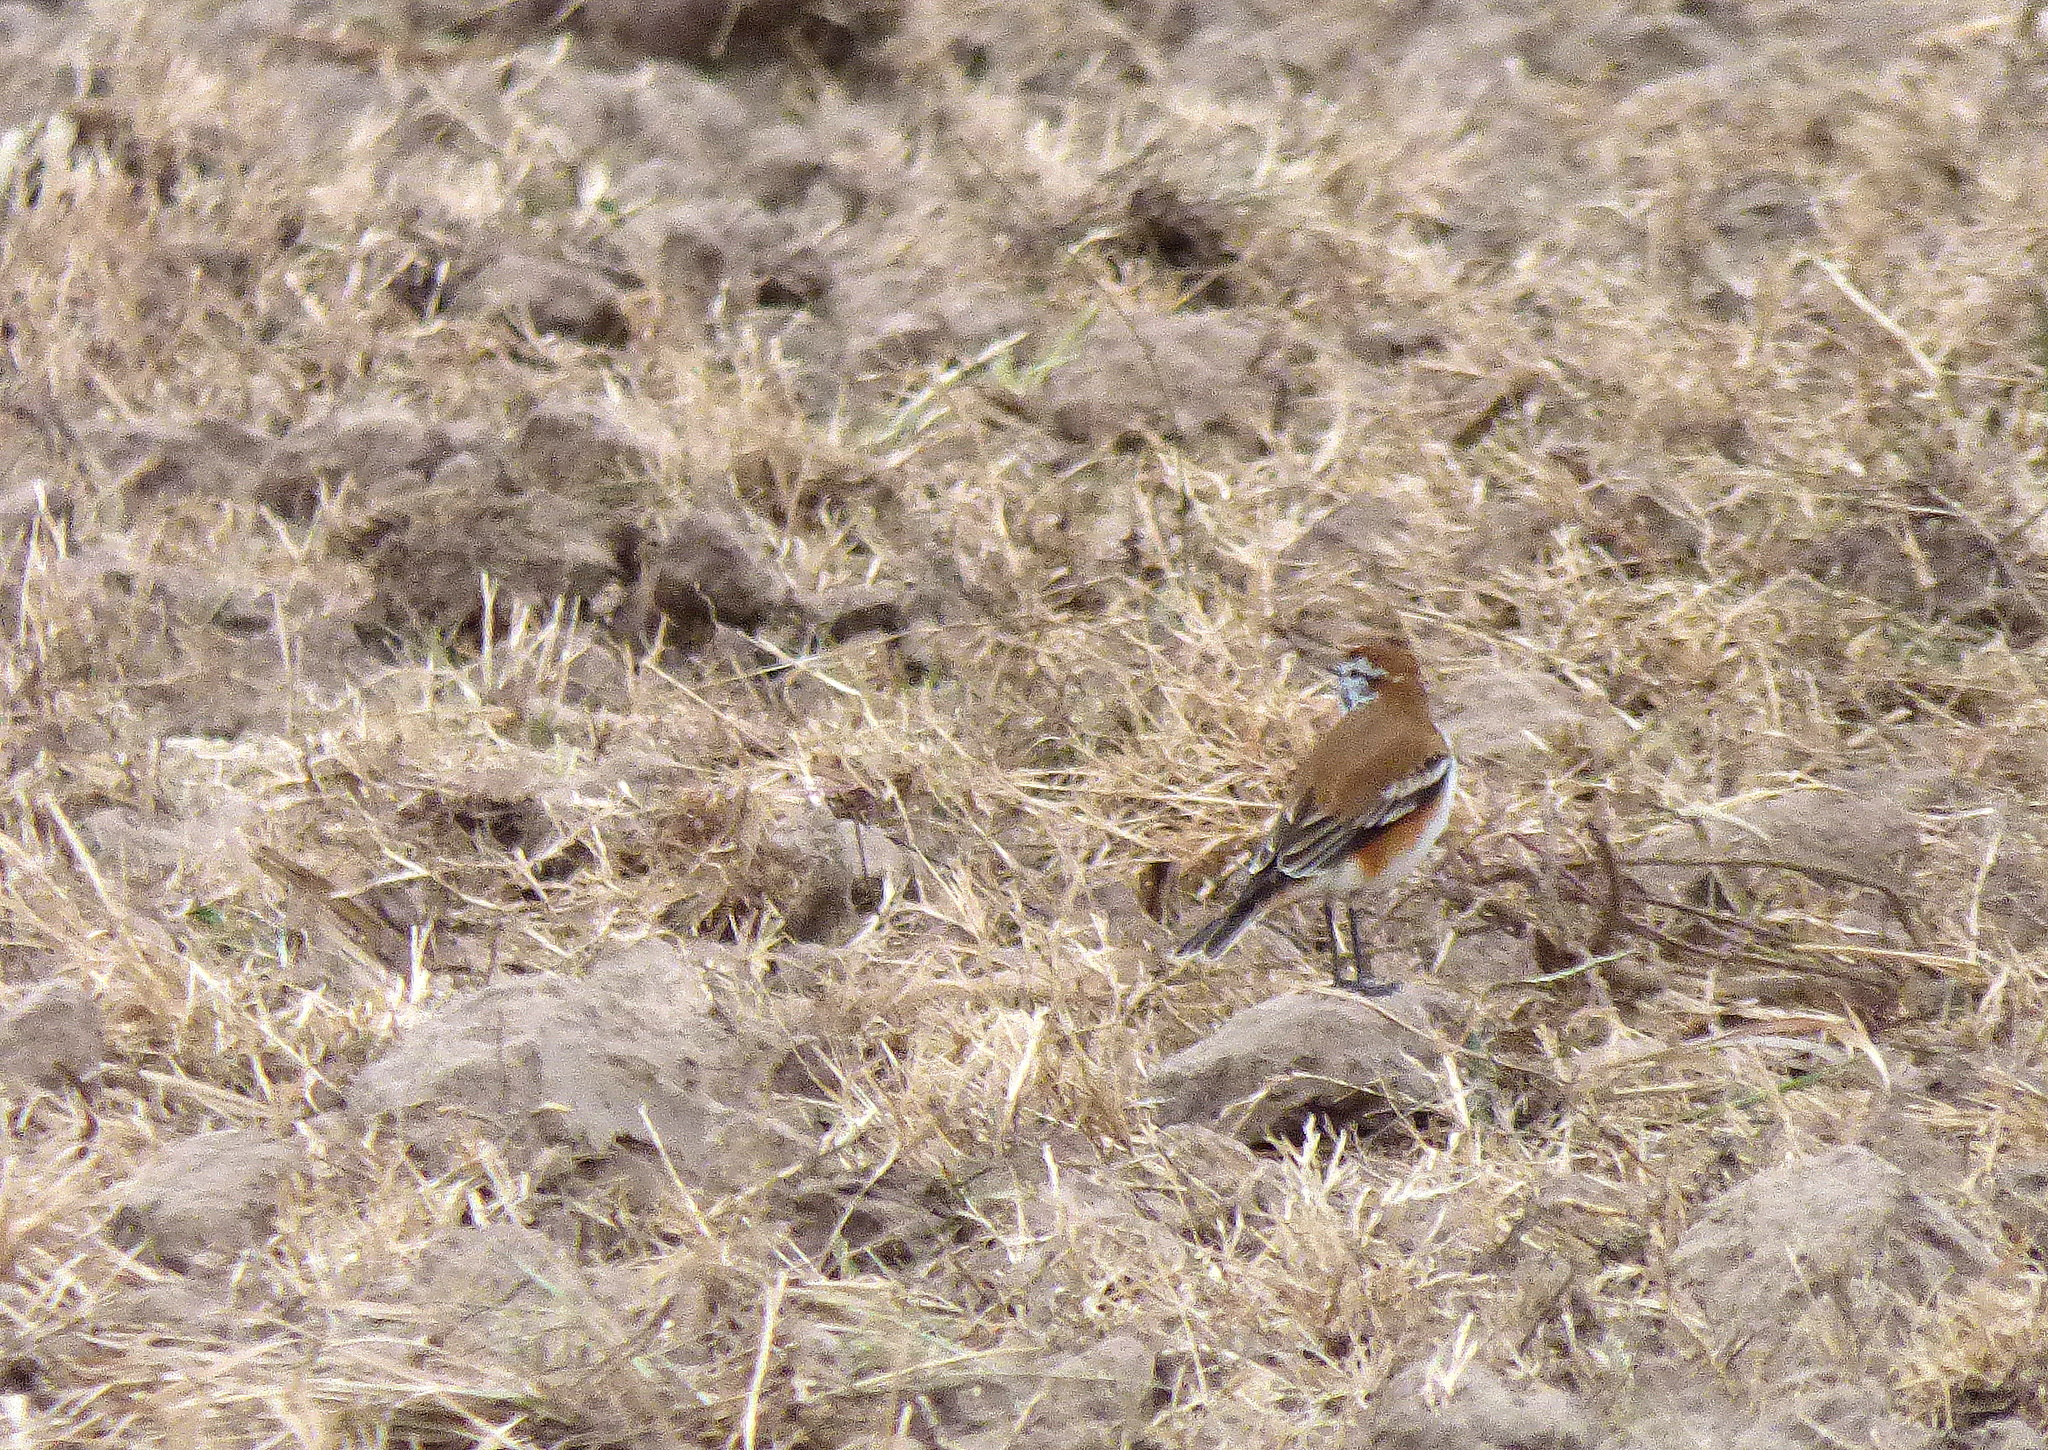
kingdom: Animalia
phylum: Chordata
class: Aves
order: Passeriformes
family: Tyrannidae
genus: Xolmis
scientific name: Xolmis rubetra
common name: Rusty-backed monjita
